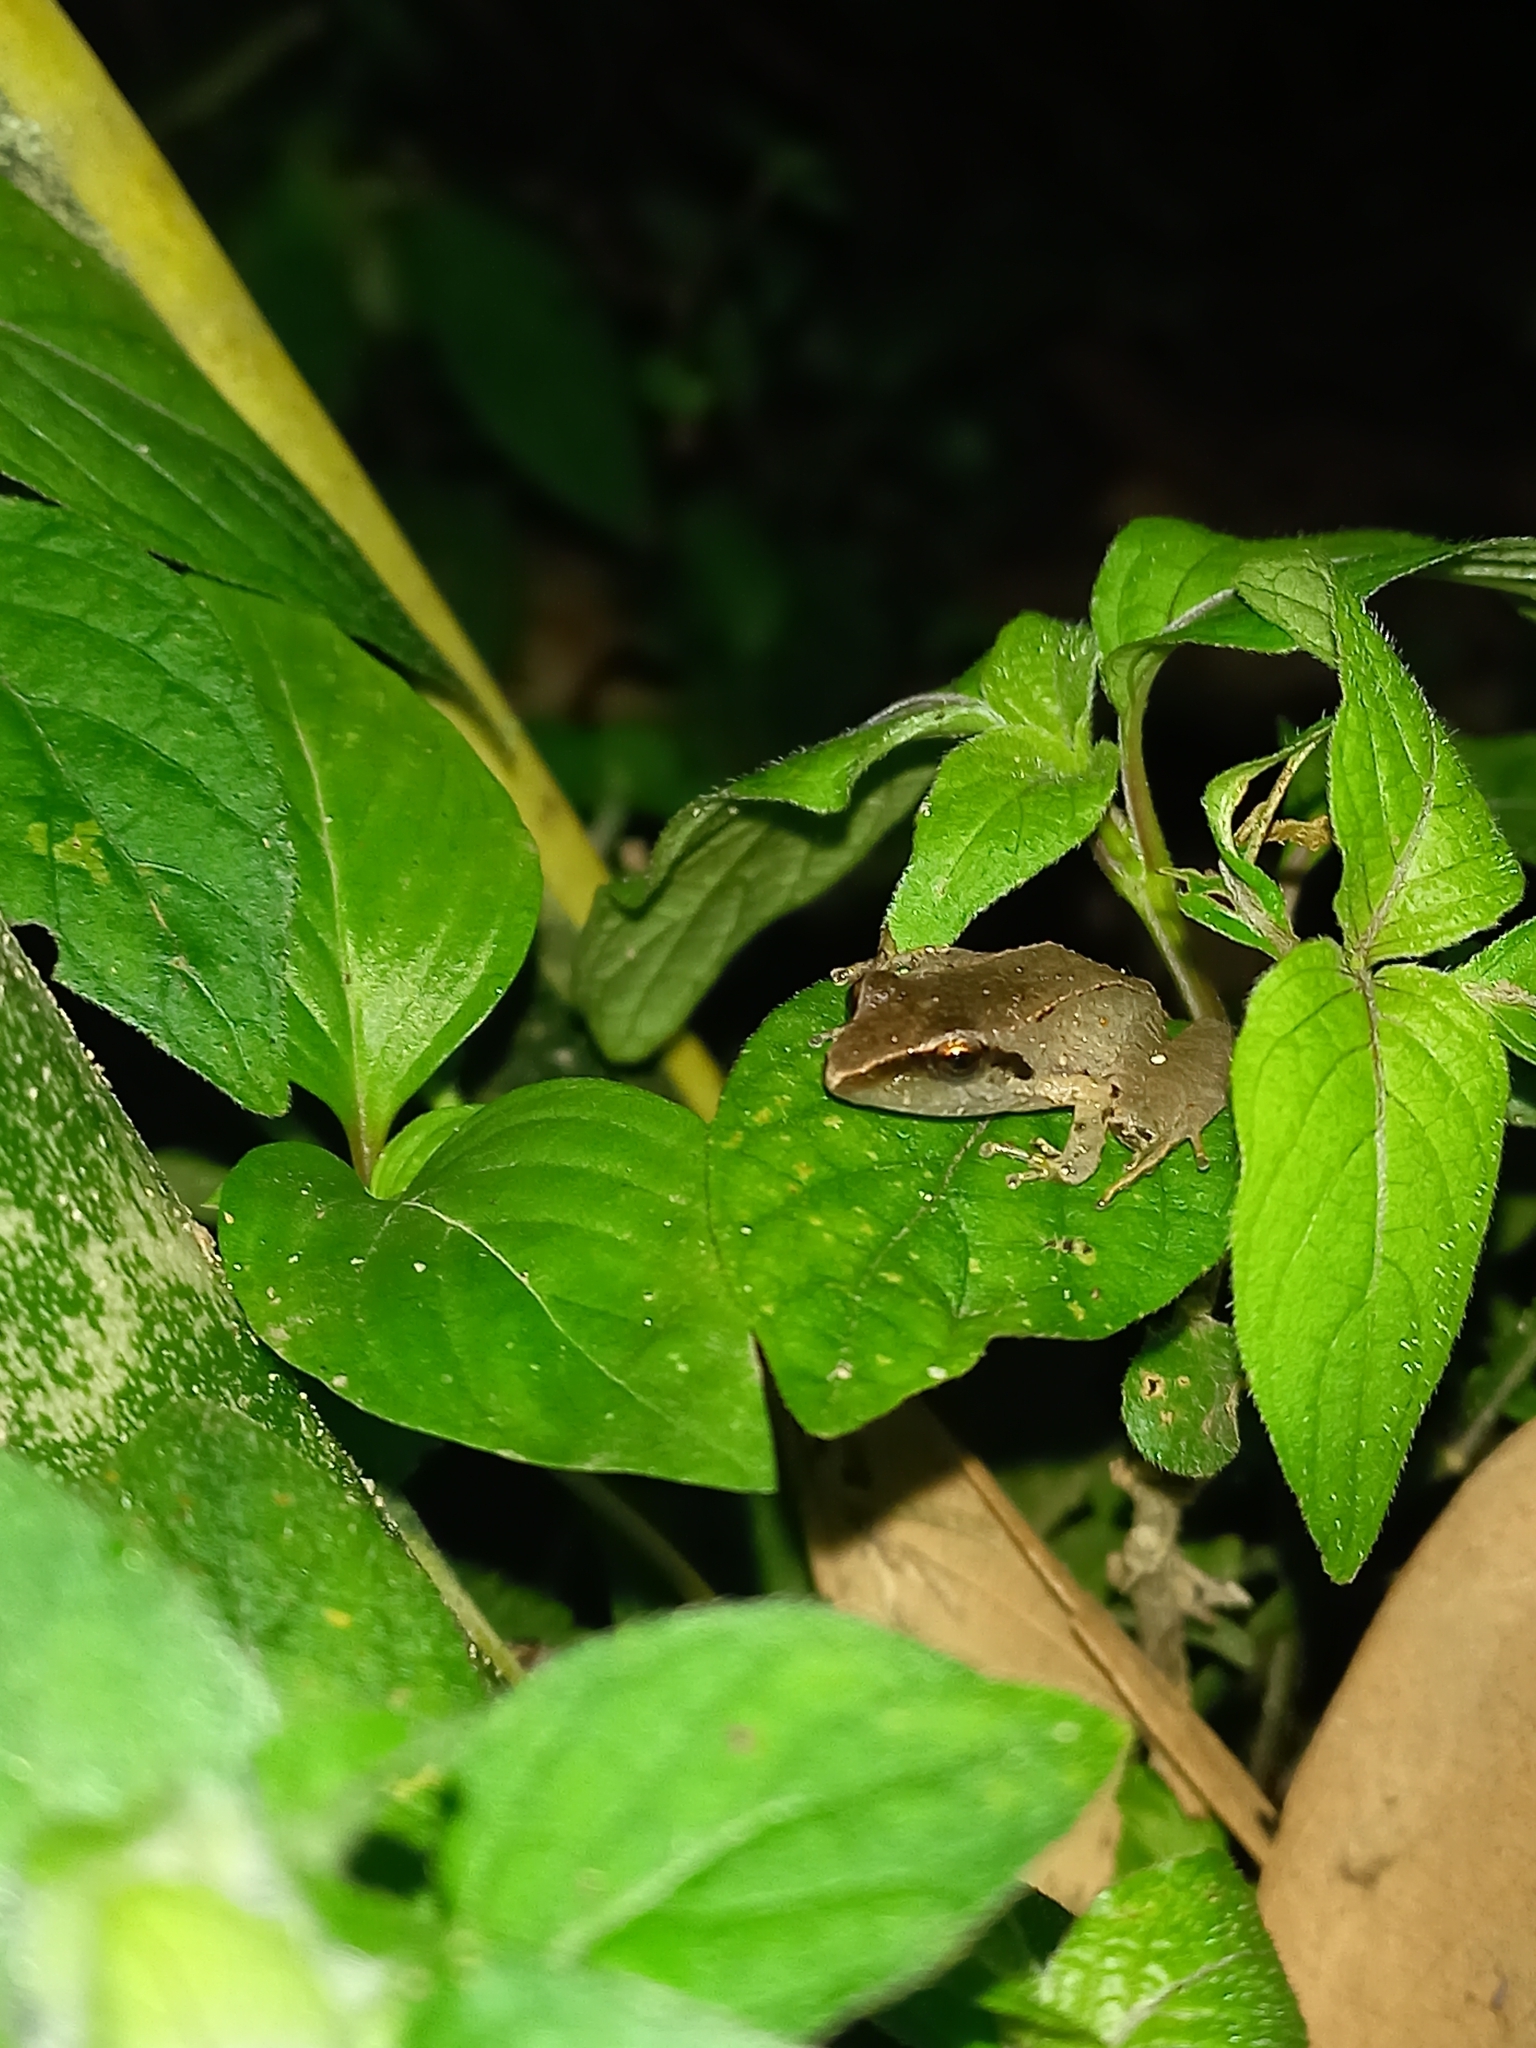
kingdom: Animalia
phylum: Chordata
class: Amphibia
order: Anura
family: Craugastoridae
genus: Pristimantis
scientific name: Pristimantis achatinus
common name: Cachabi robber frog
